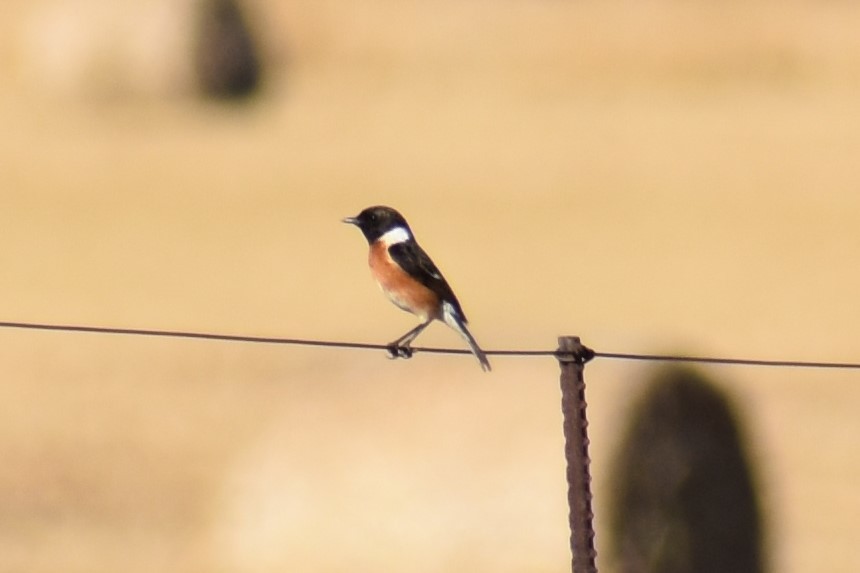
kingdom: Animalia
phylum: Chordata
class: Aves
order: Passeriformes
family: Muscicapidae
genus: Saxicola
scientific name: Saxicola torquatus
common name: African stonechat
